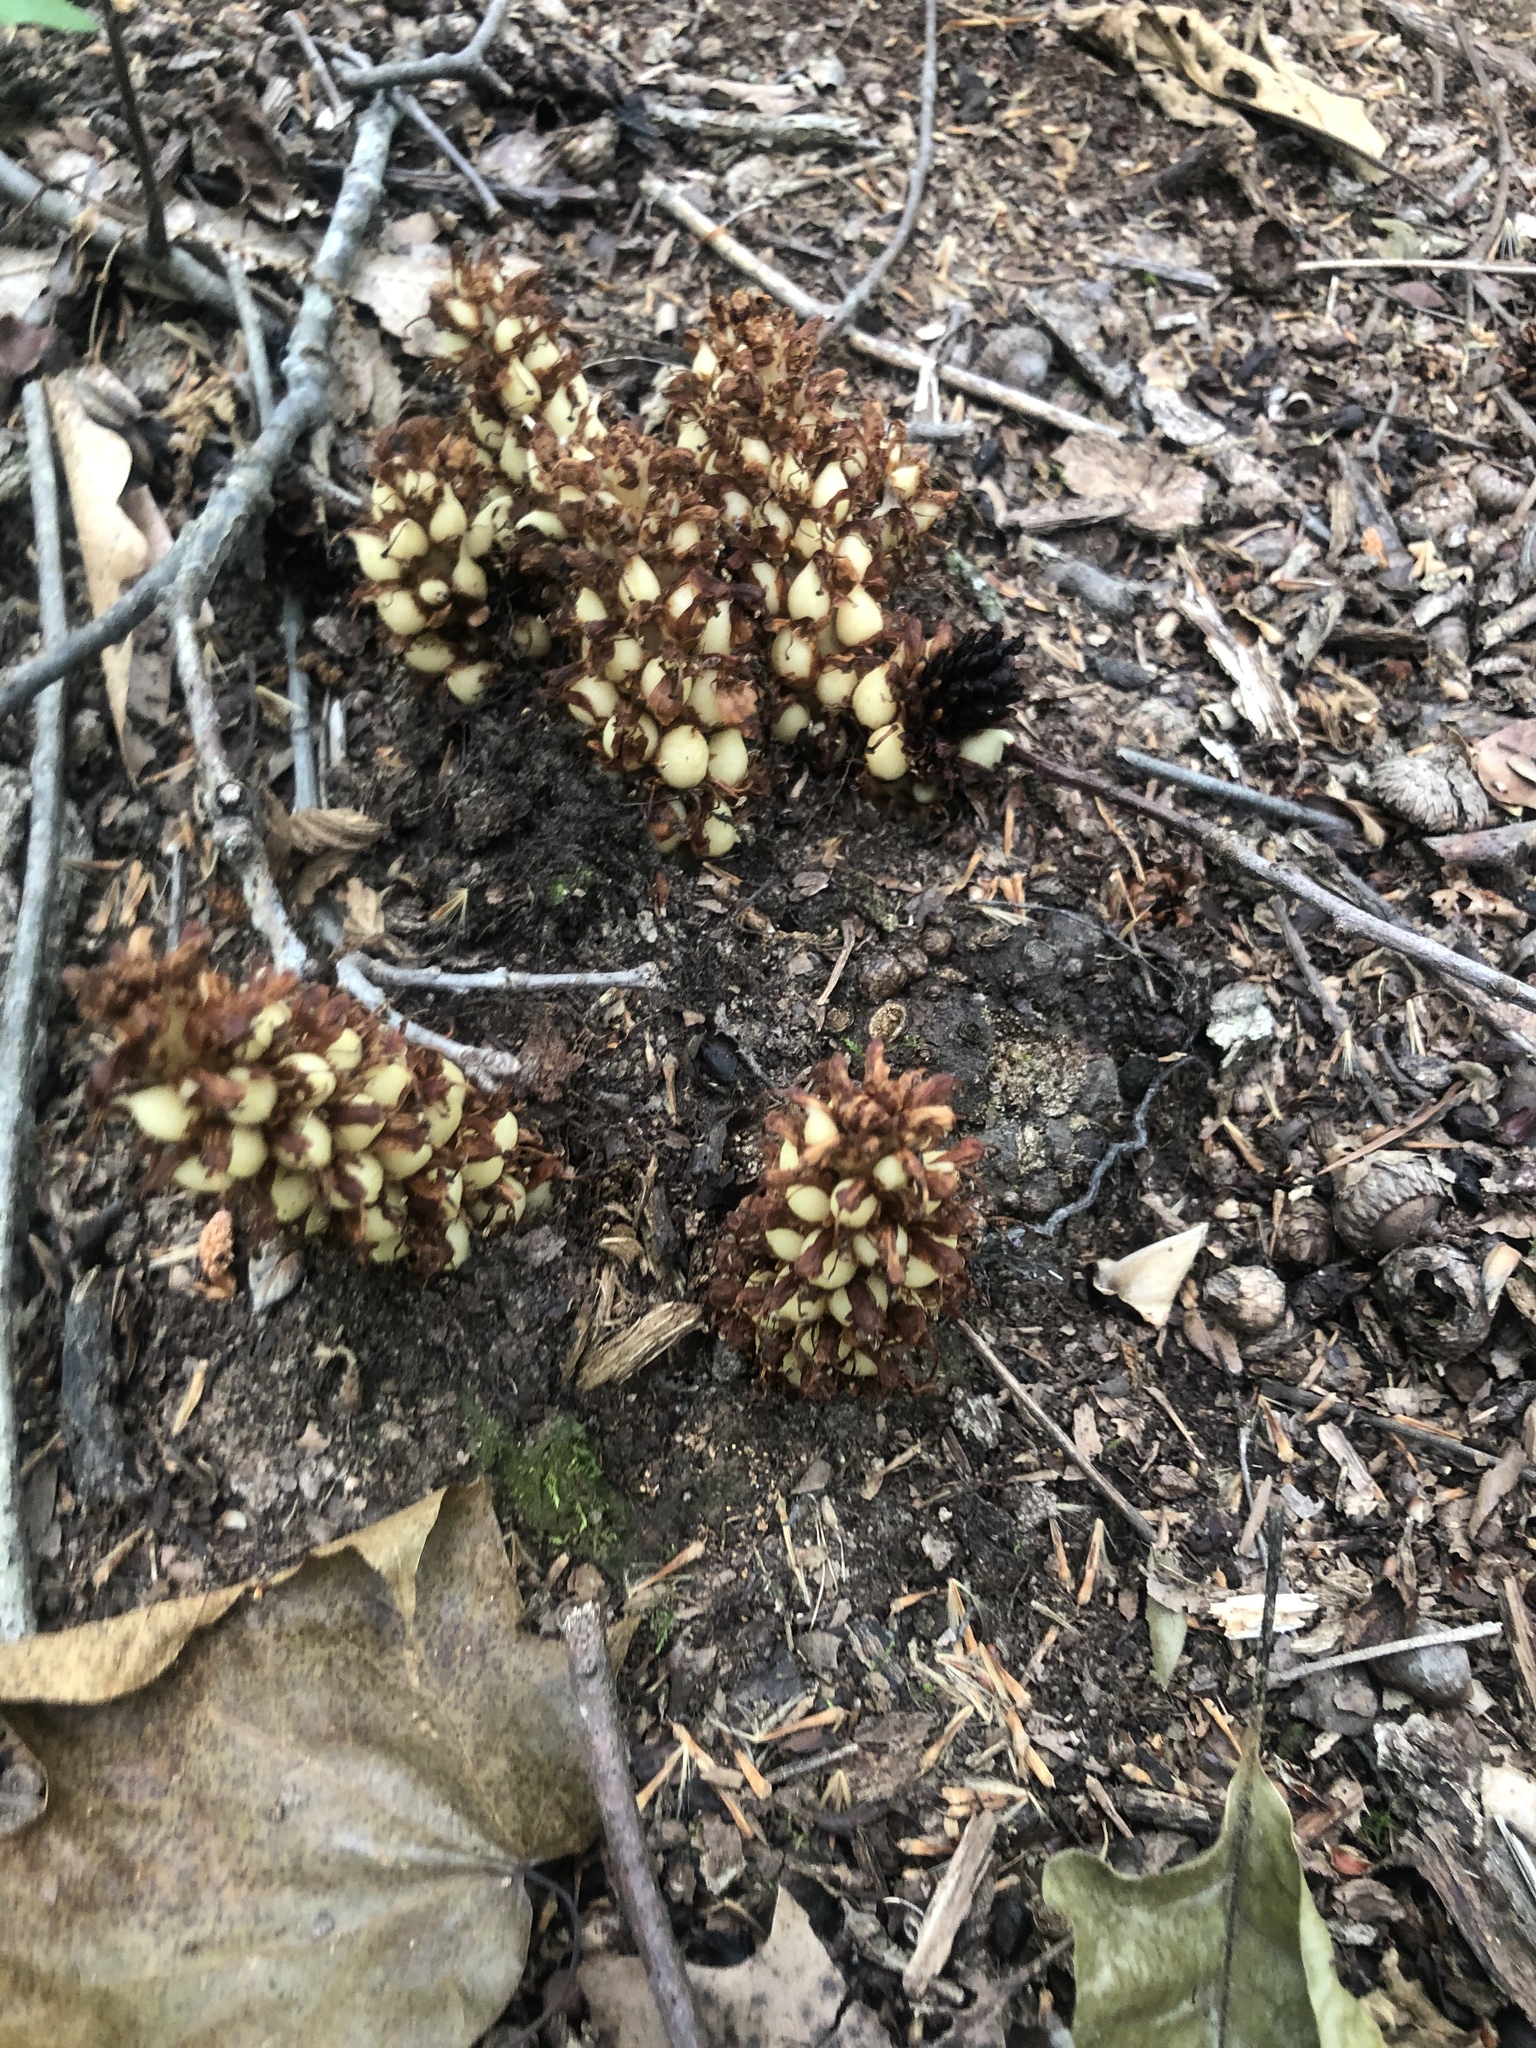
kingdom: Plantae
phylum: Tracheophyta
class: Magnoliopsida
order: Lamiales
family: Orobanchaceae
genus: Conopholis
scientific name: Conopholis americana
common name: American cancer-root
